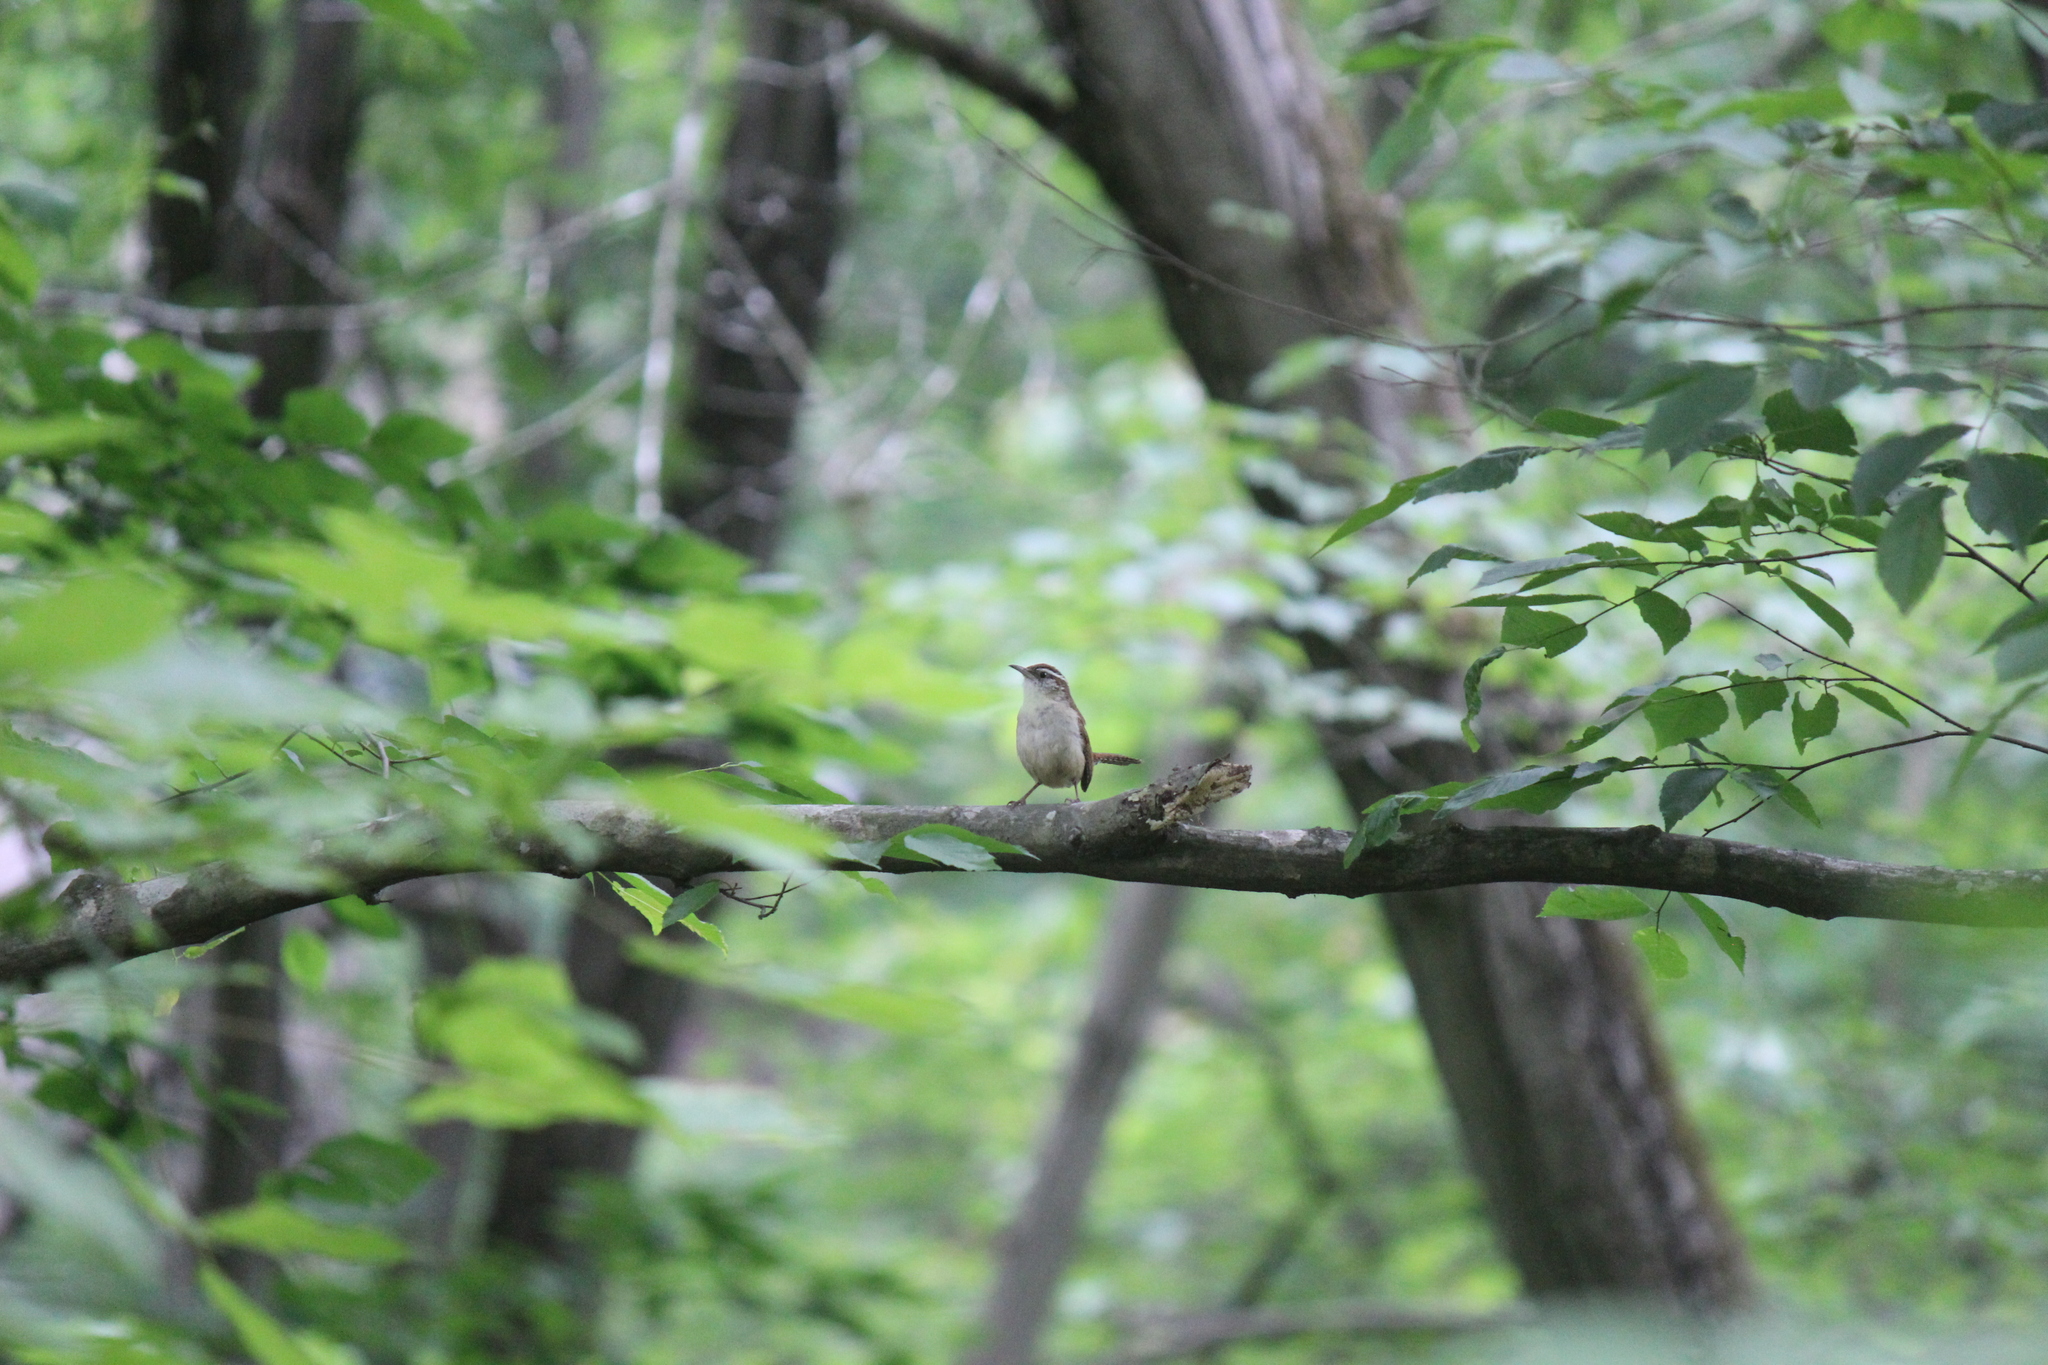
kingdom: Animalia
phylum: Chordata
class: Aves
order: Passeriformes
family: Troglodytidae
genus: Thryothorus
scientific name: Thryothorus ludovicianus
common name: Carolina wren
